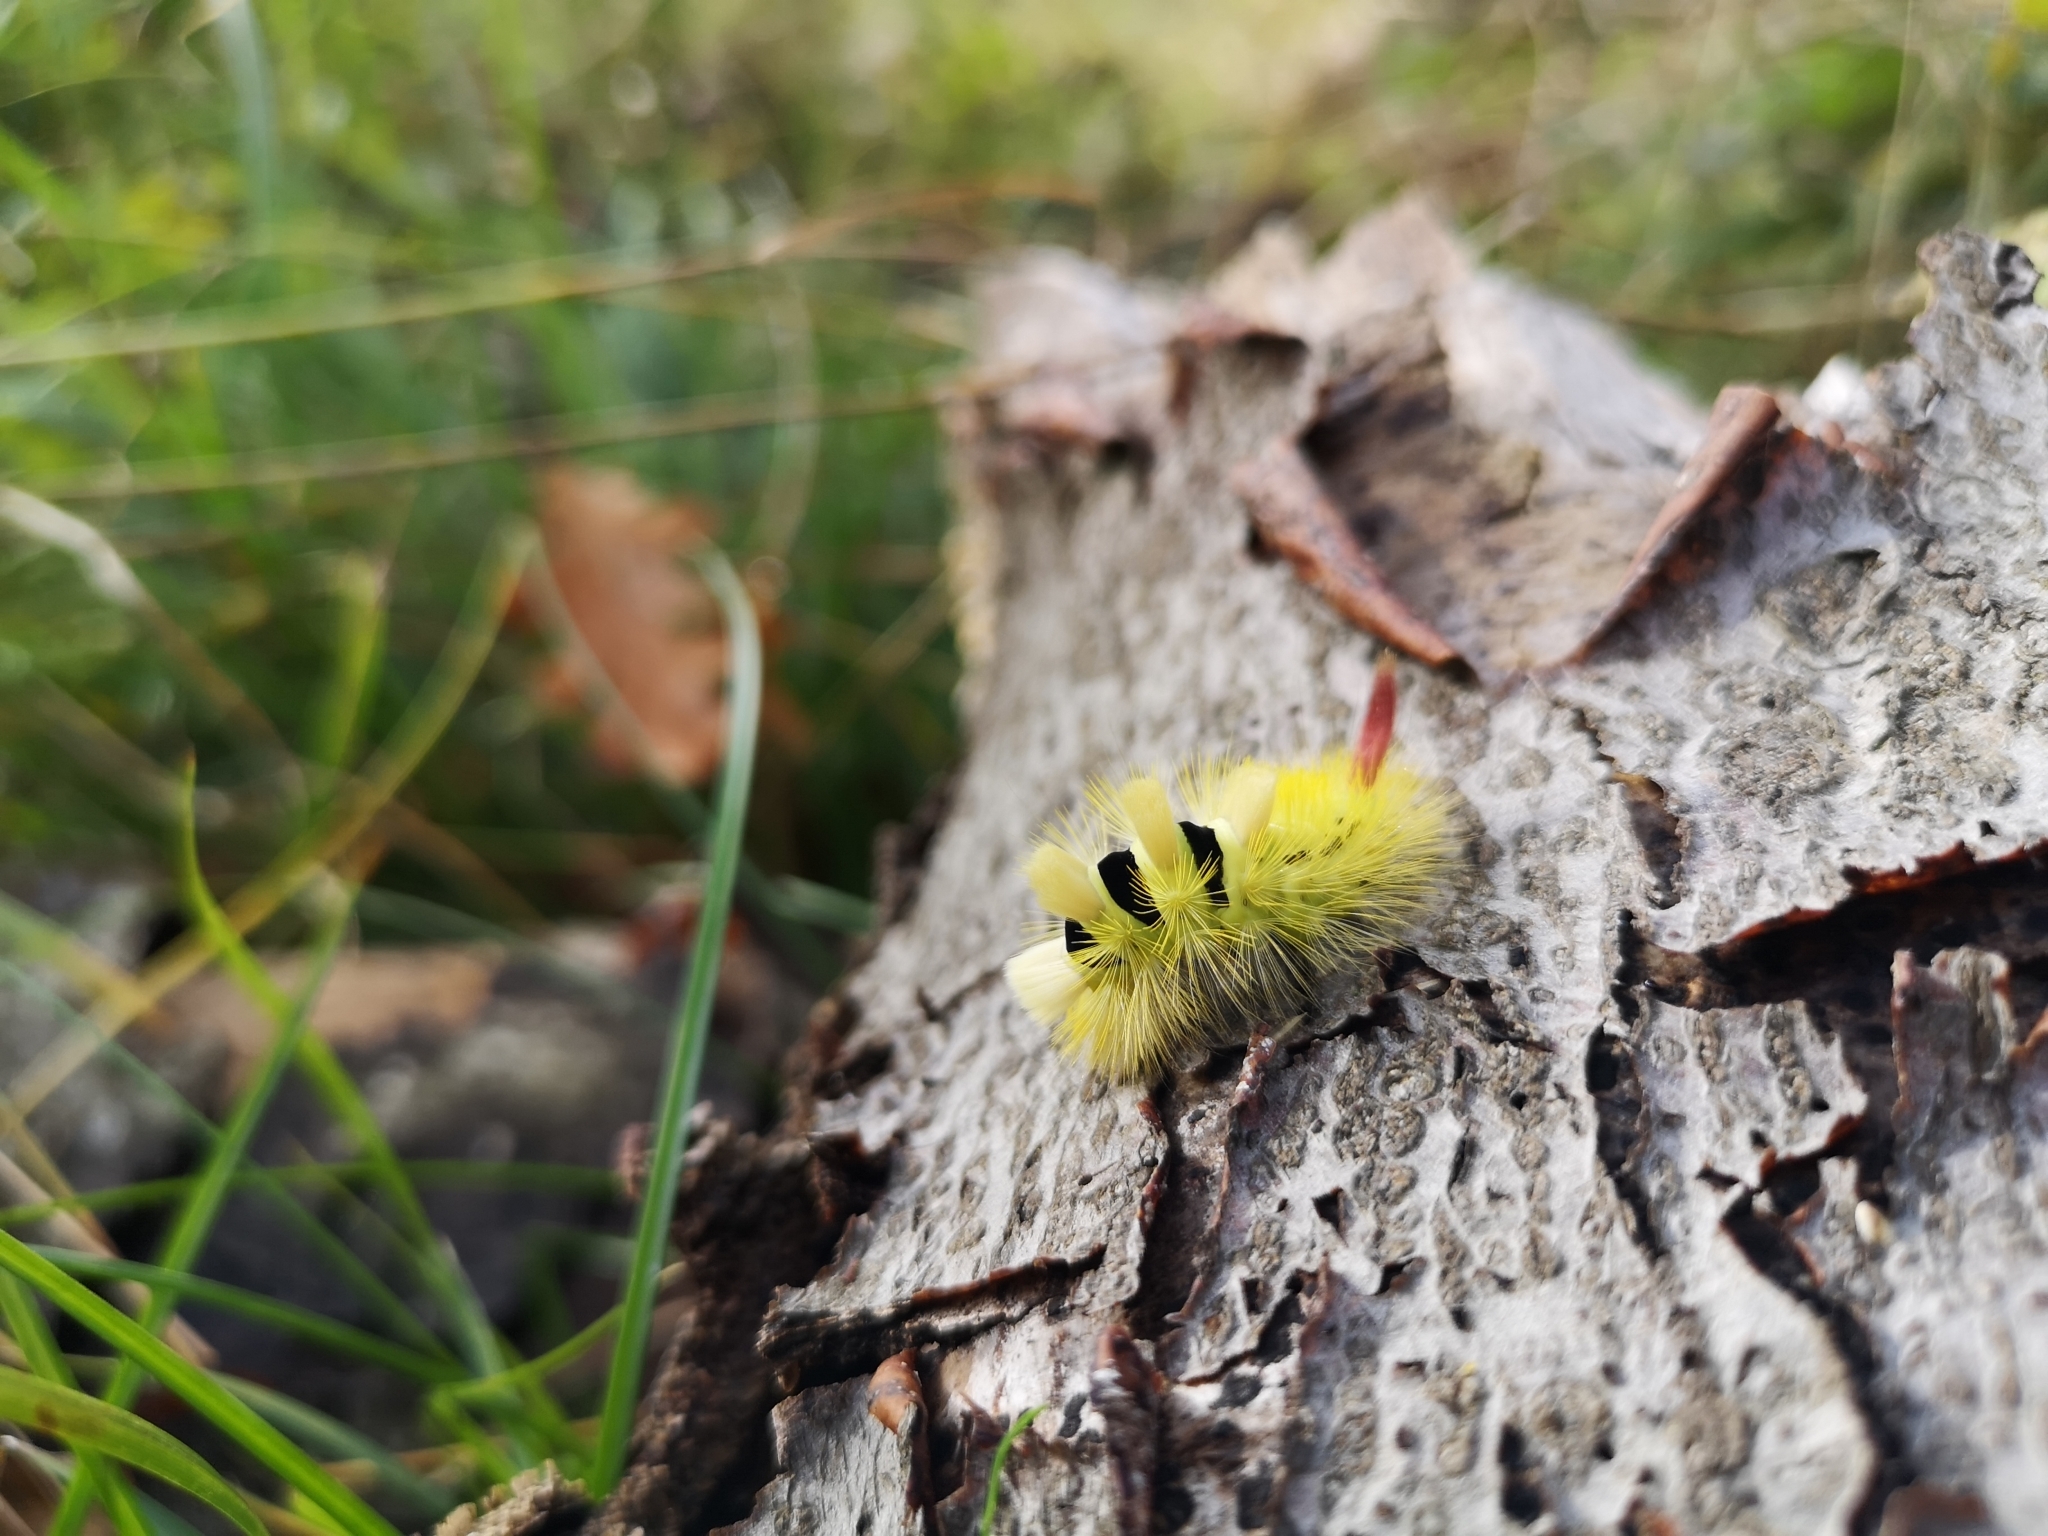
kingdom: Animalia
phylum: Arthropoda
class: Insecta
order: Lepidoptera
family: Erebidae
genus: Calliteara
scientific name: Calliteara pudibunda
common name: Pale tussock
